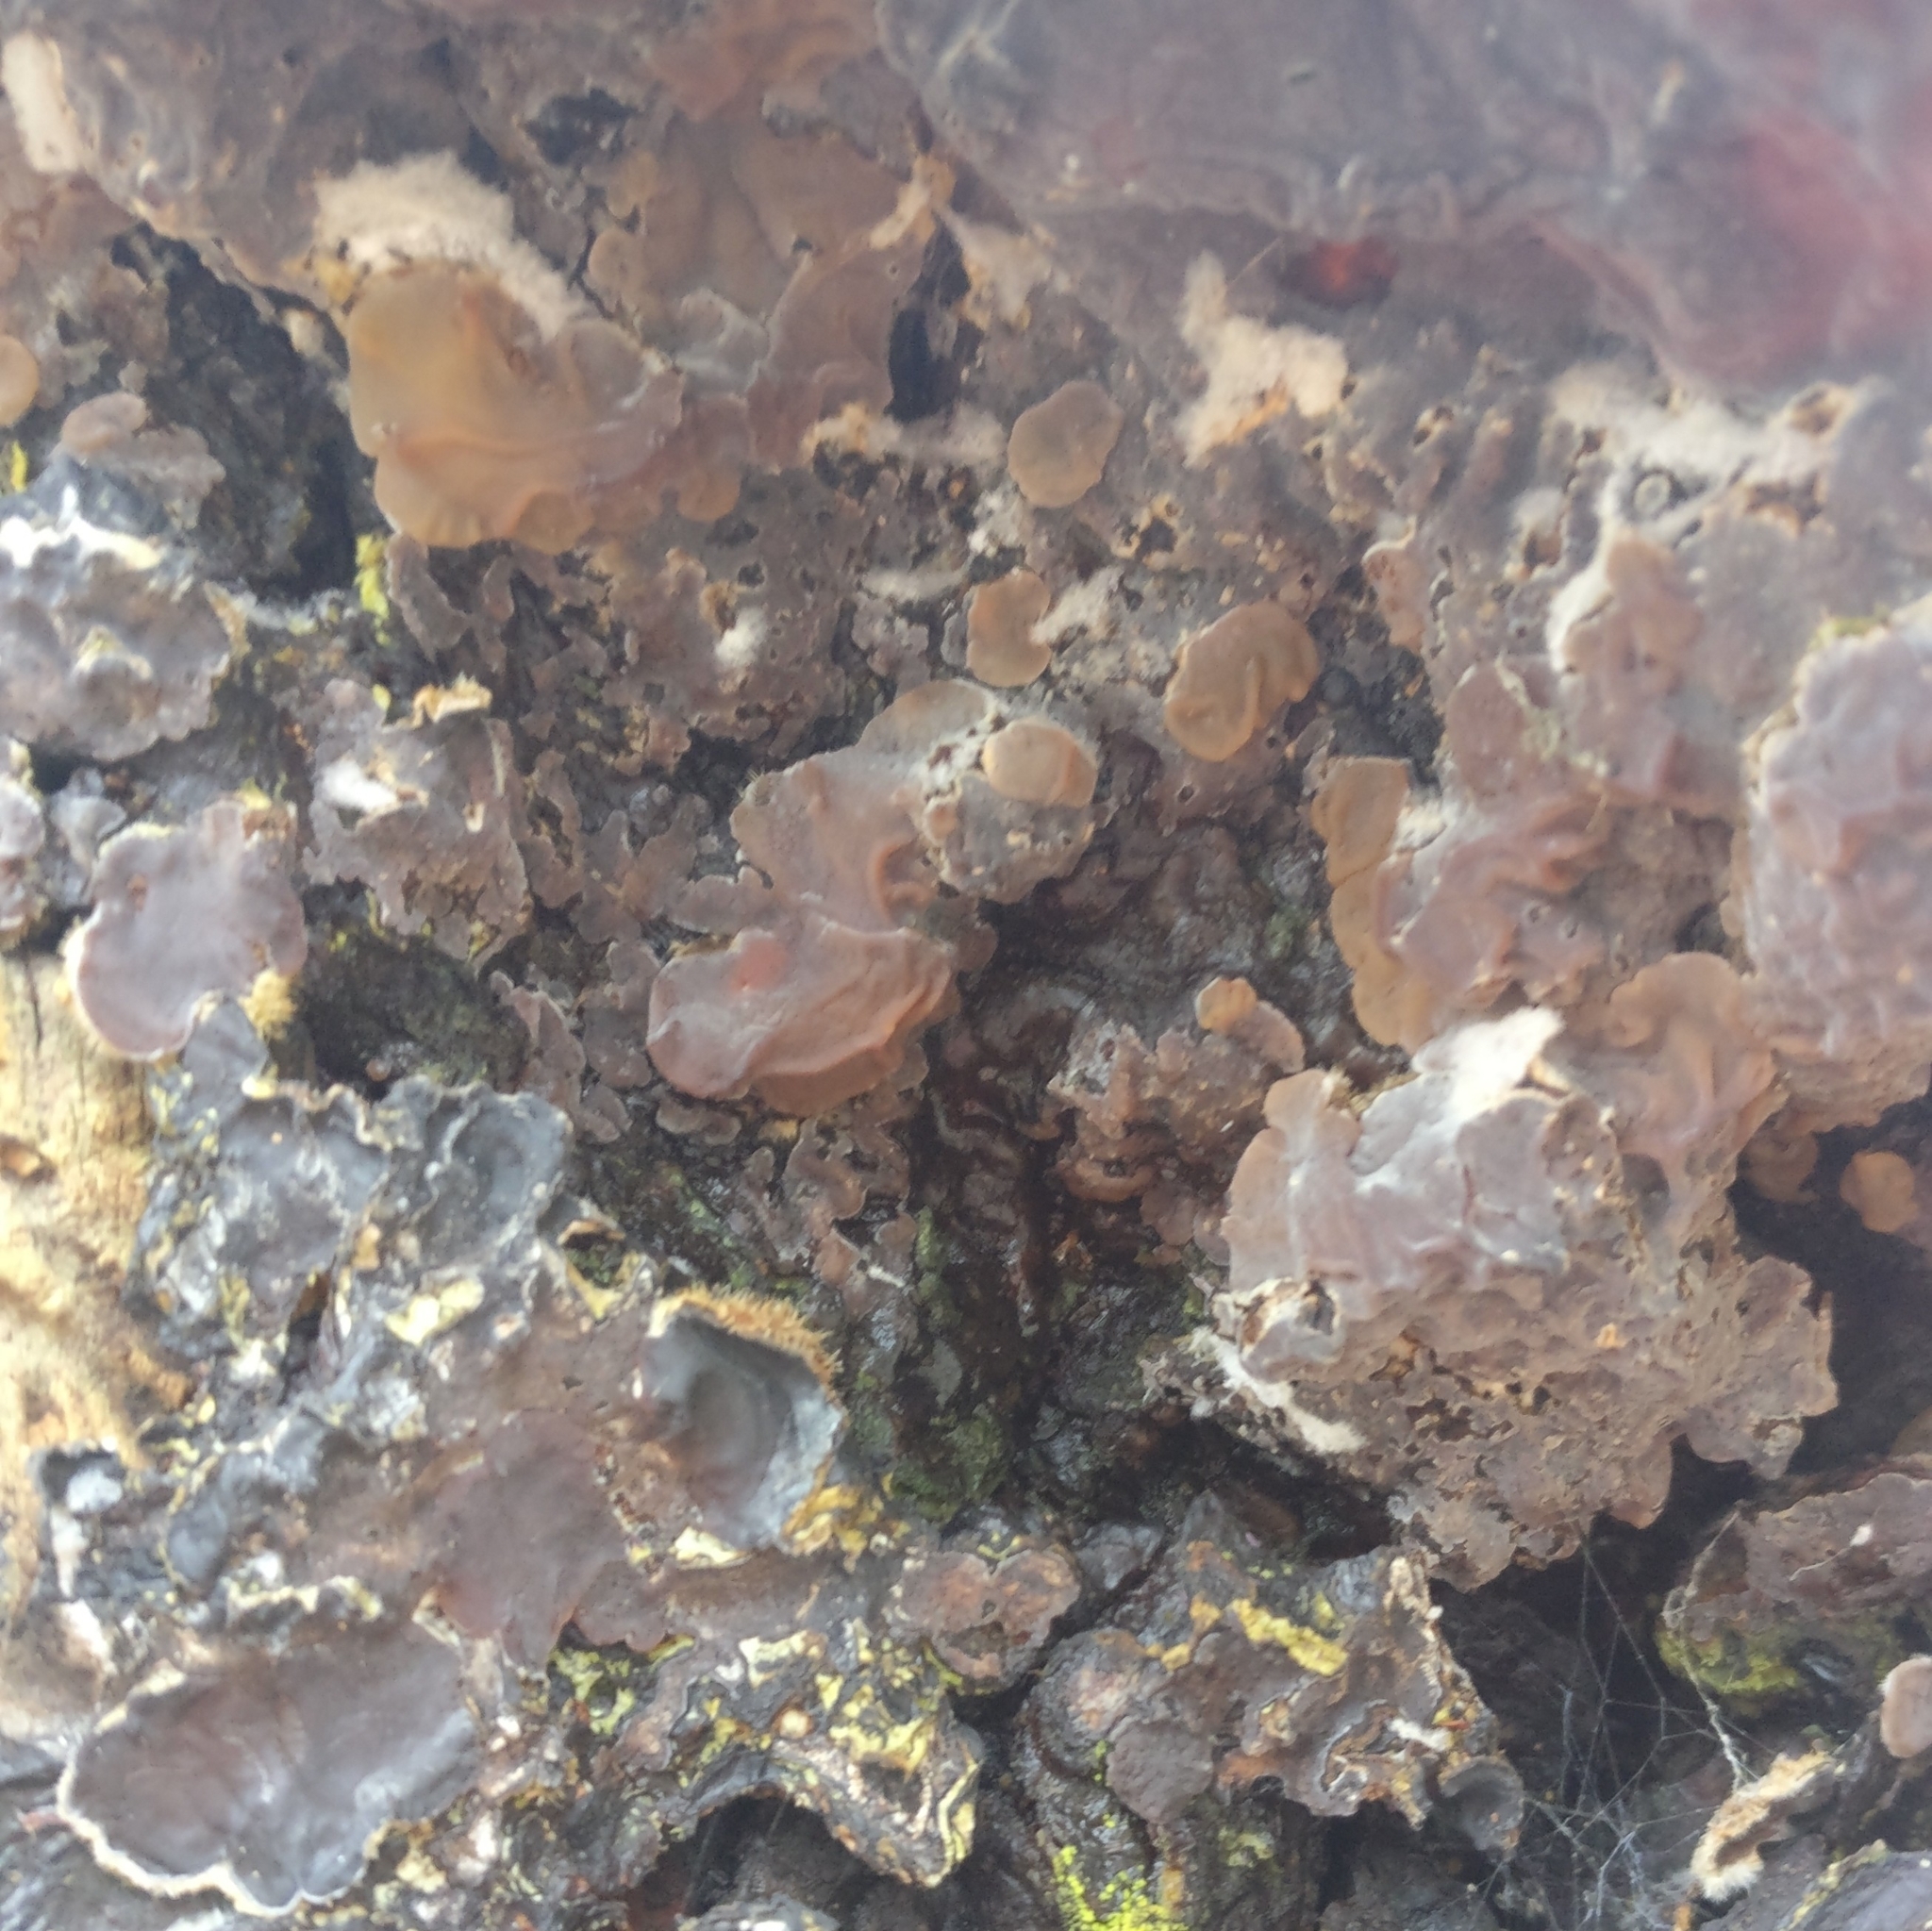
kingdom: Fungi
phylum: Basidiomycota
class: Agaricomycetes
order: Auriculariales
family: Auriculariaceae
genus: Auricularia
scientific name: Auricularia mesenterica
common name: Tripe fungus
